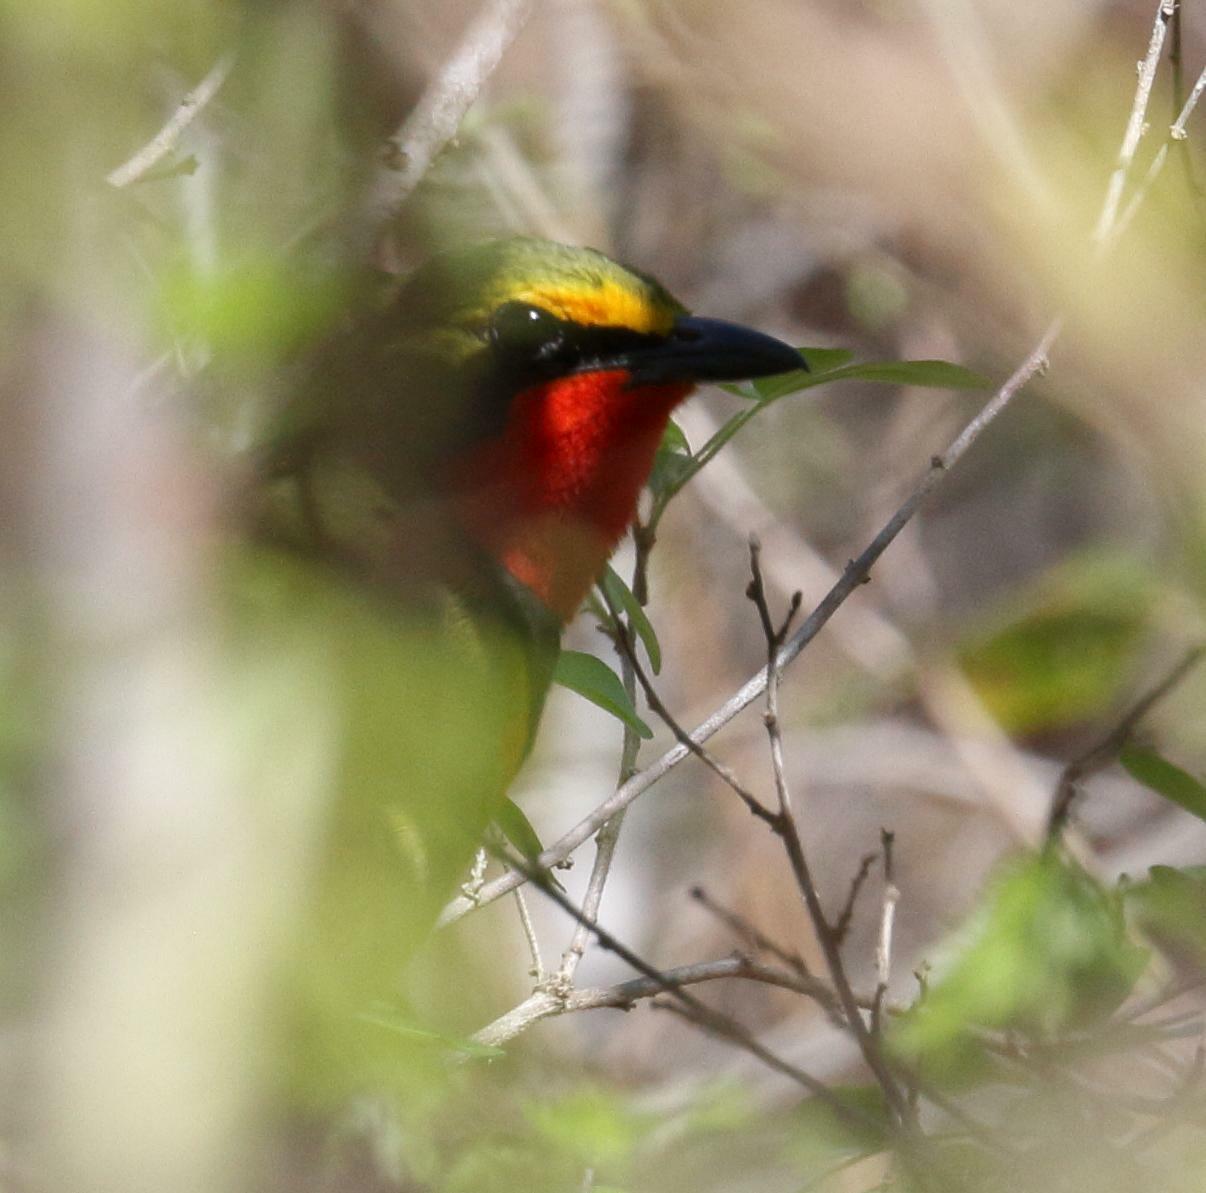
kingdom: Animalia
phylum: Chordata
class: Aves
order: Passeriformes
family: Malaconotidae
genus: Telophorus
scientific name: Telophorus quadricolor
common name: Four-colored bushshrike
